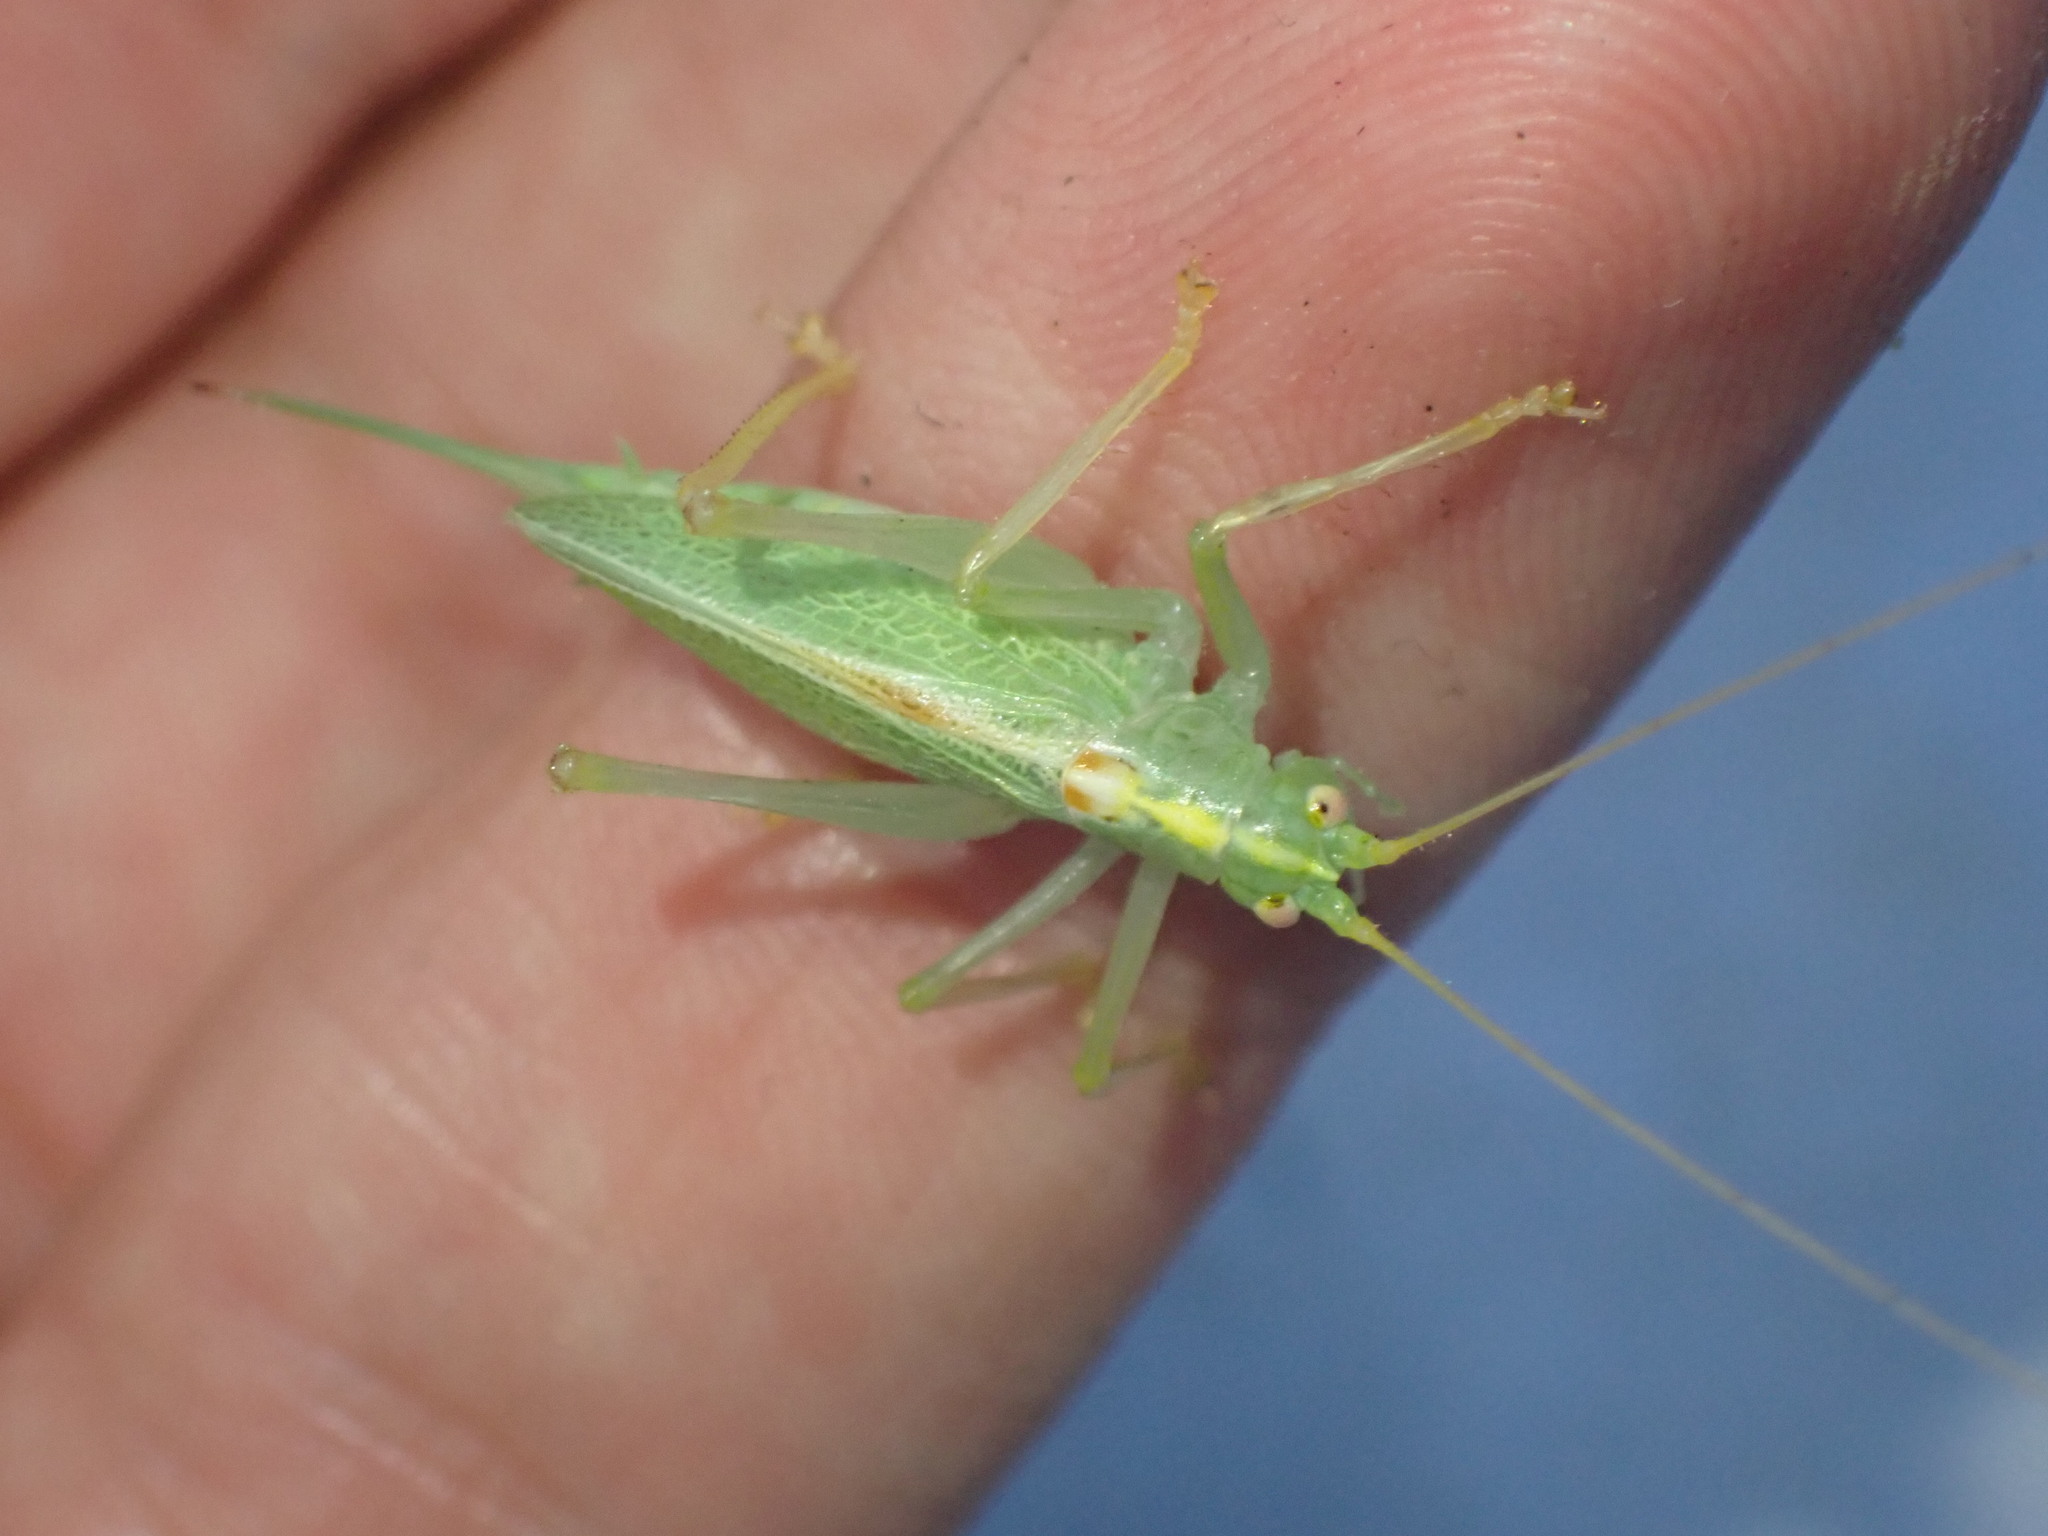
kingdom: Animalia
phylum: Arthropoda
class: Insecta
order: Orthoptera
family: Tettigoniidae
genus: Meconema
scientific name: Meconema thalassinum
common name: Oak bush-cricket
